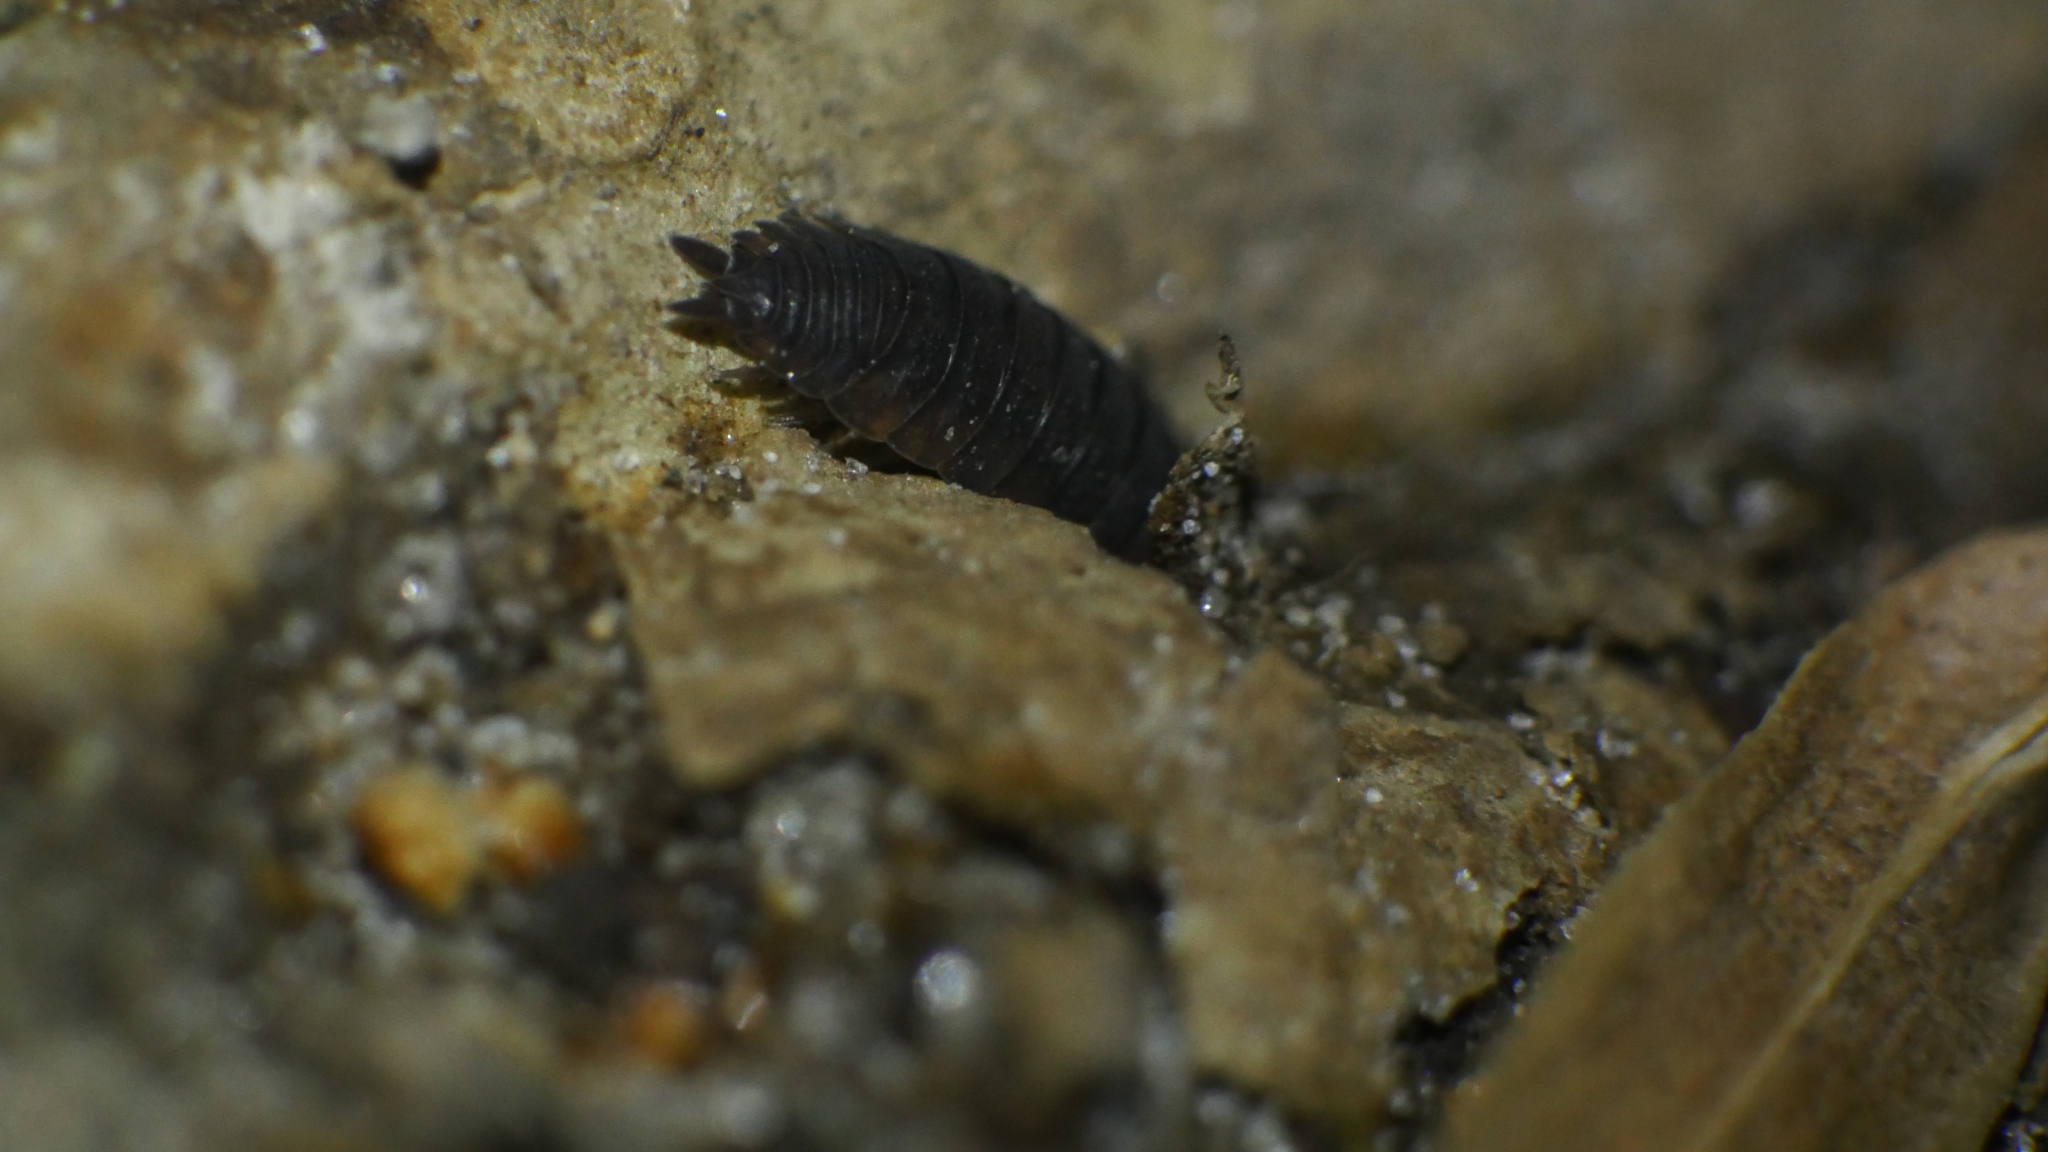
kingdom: Animalia
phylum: Arthropoda
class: Malacostraca
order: Isopoda
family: Porcellionidae
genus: Porcellio
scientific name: Porcellio scaber
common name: Common rough woodlouse
